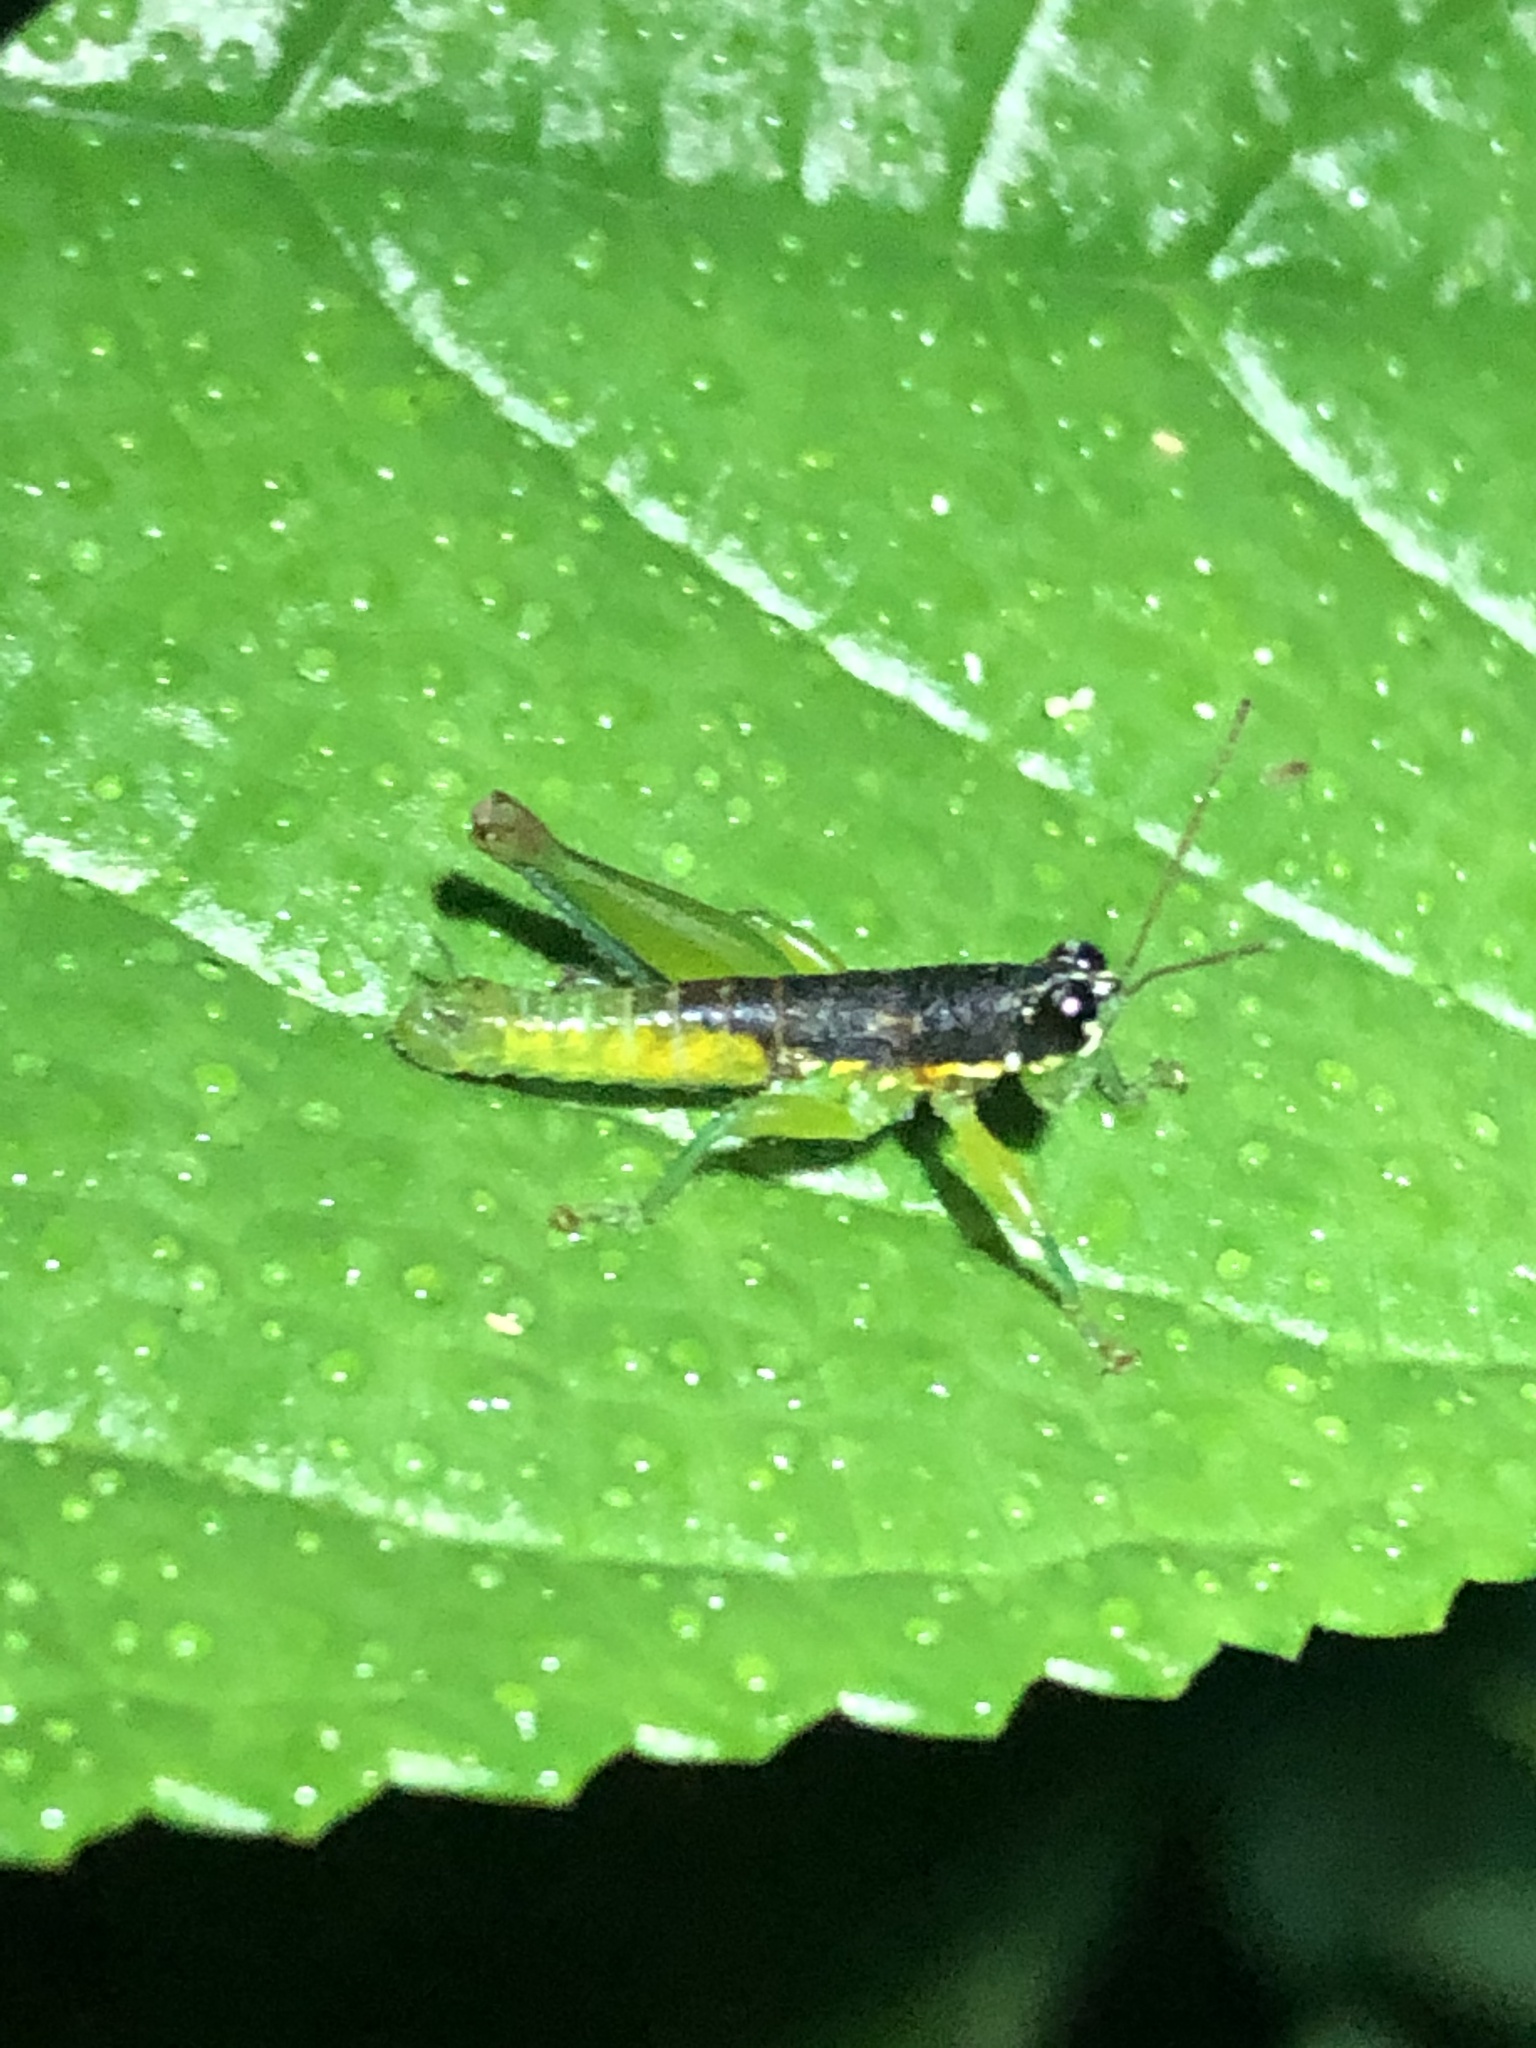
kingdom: Animalia
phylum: Arthropoda
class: Insecta
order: Orthoptera
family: Acrididae
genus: Liebermannacris
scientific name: Liebermannacris dorsualis
